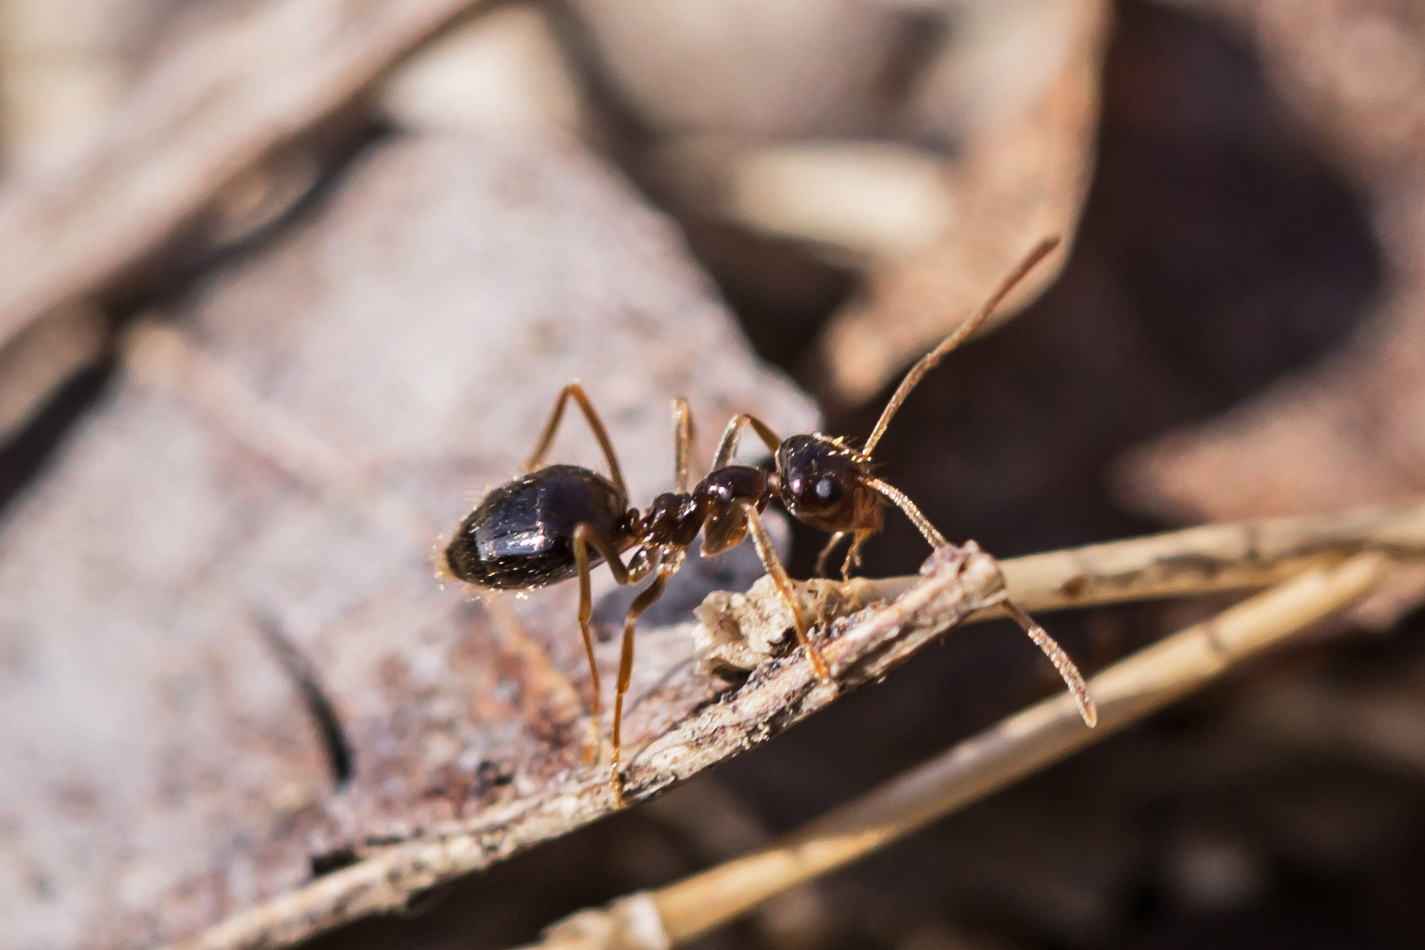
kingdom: Animalia
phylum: Arthropoda
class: Insecta
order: Hymenoptera
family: Formicidae
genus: Prenolepis
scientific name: Prenolepis imparis
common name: Small honey ant
